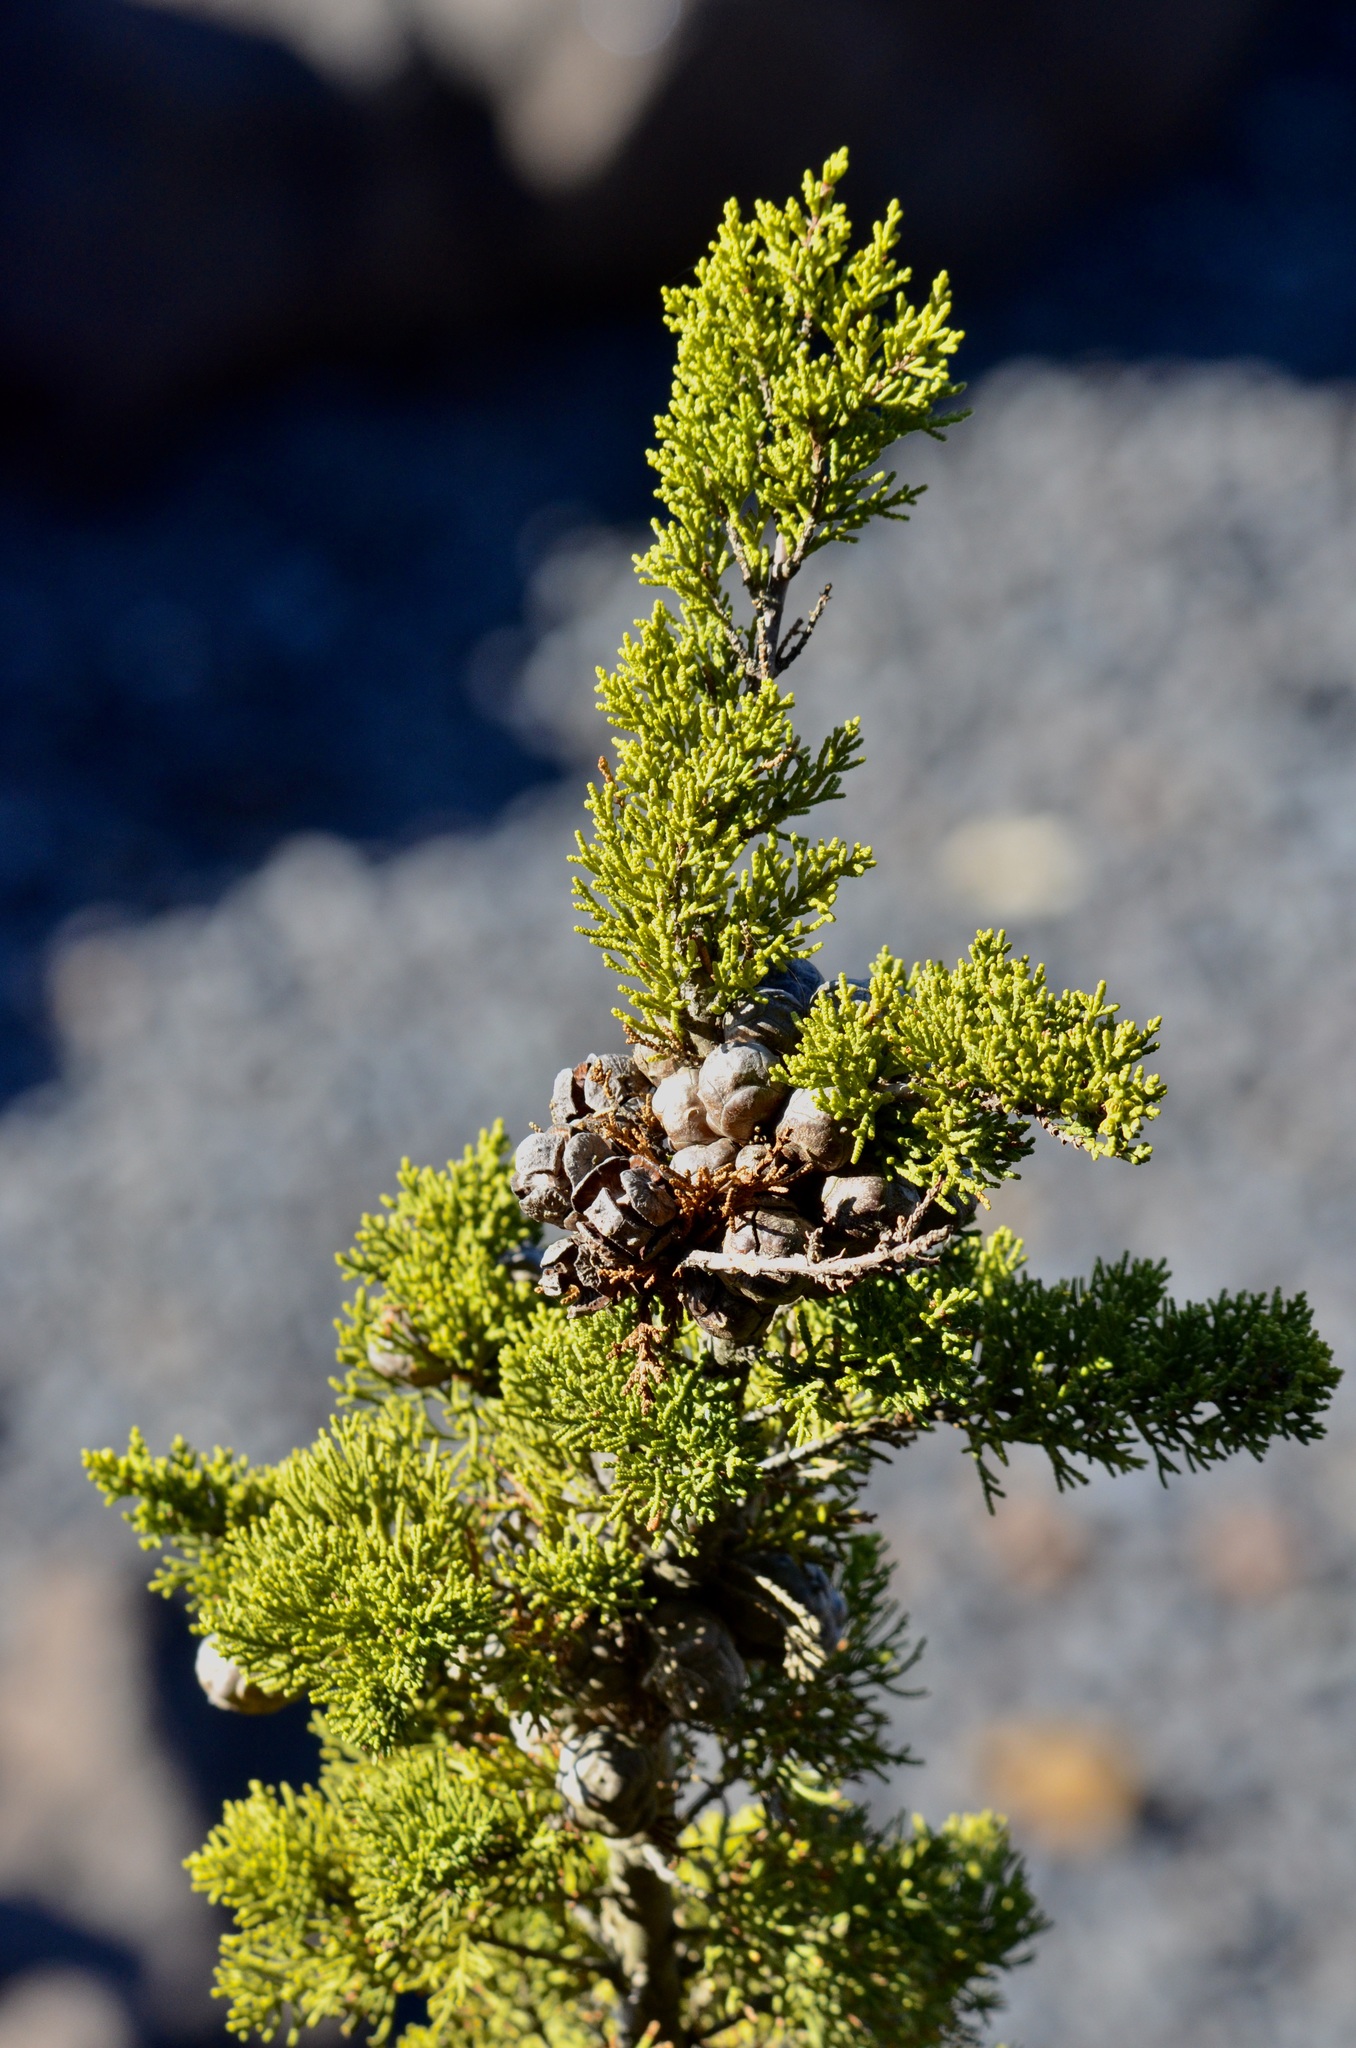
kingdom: Plantae
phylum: Tracheophyta
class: Pinopsida
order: Pinales
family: Cupressaceae
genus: Cupressus
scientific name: Cupressus macrocarpa
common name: Monterey cypress
